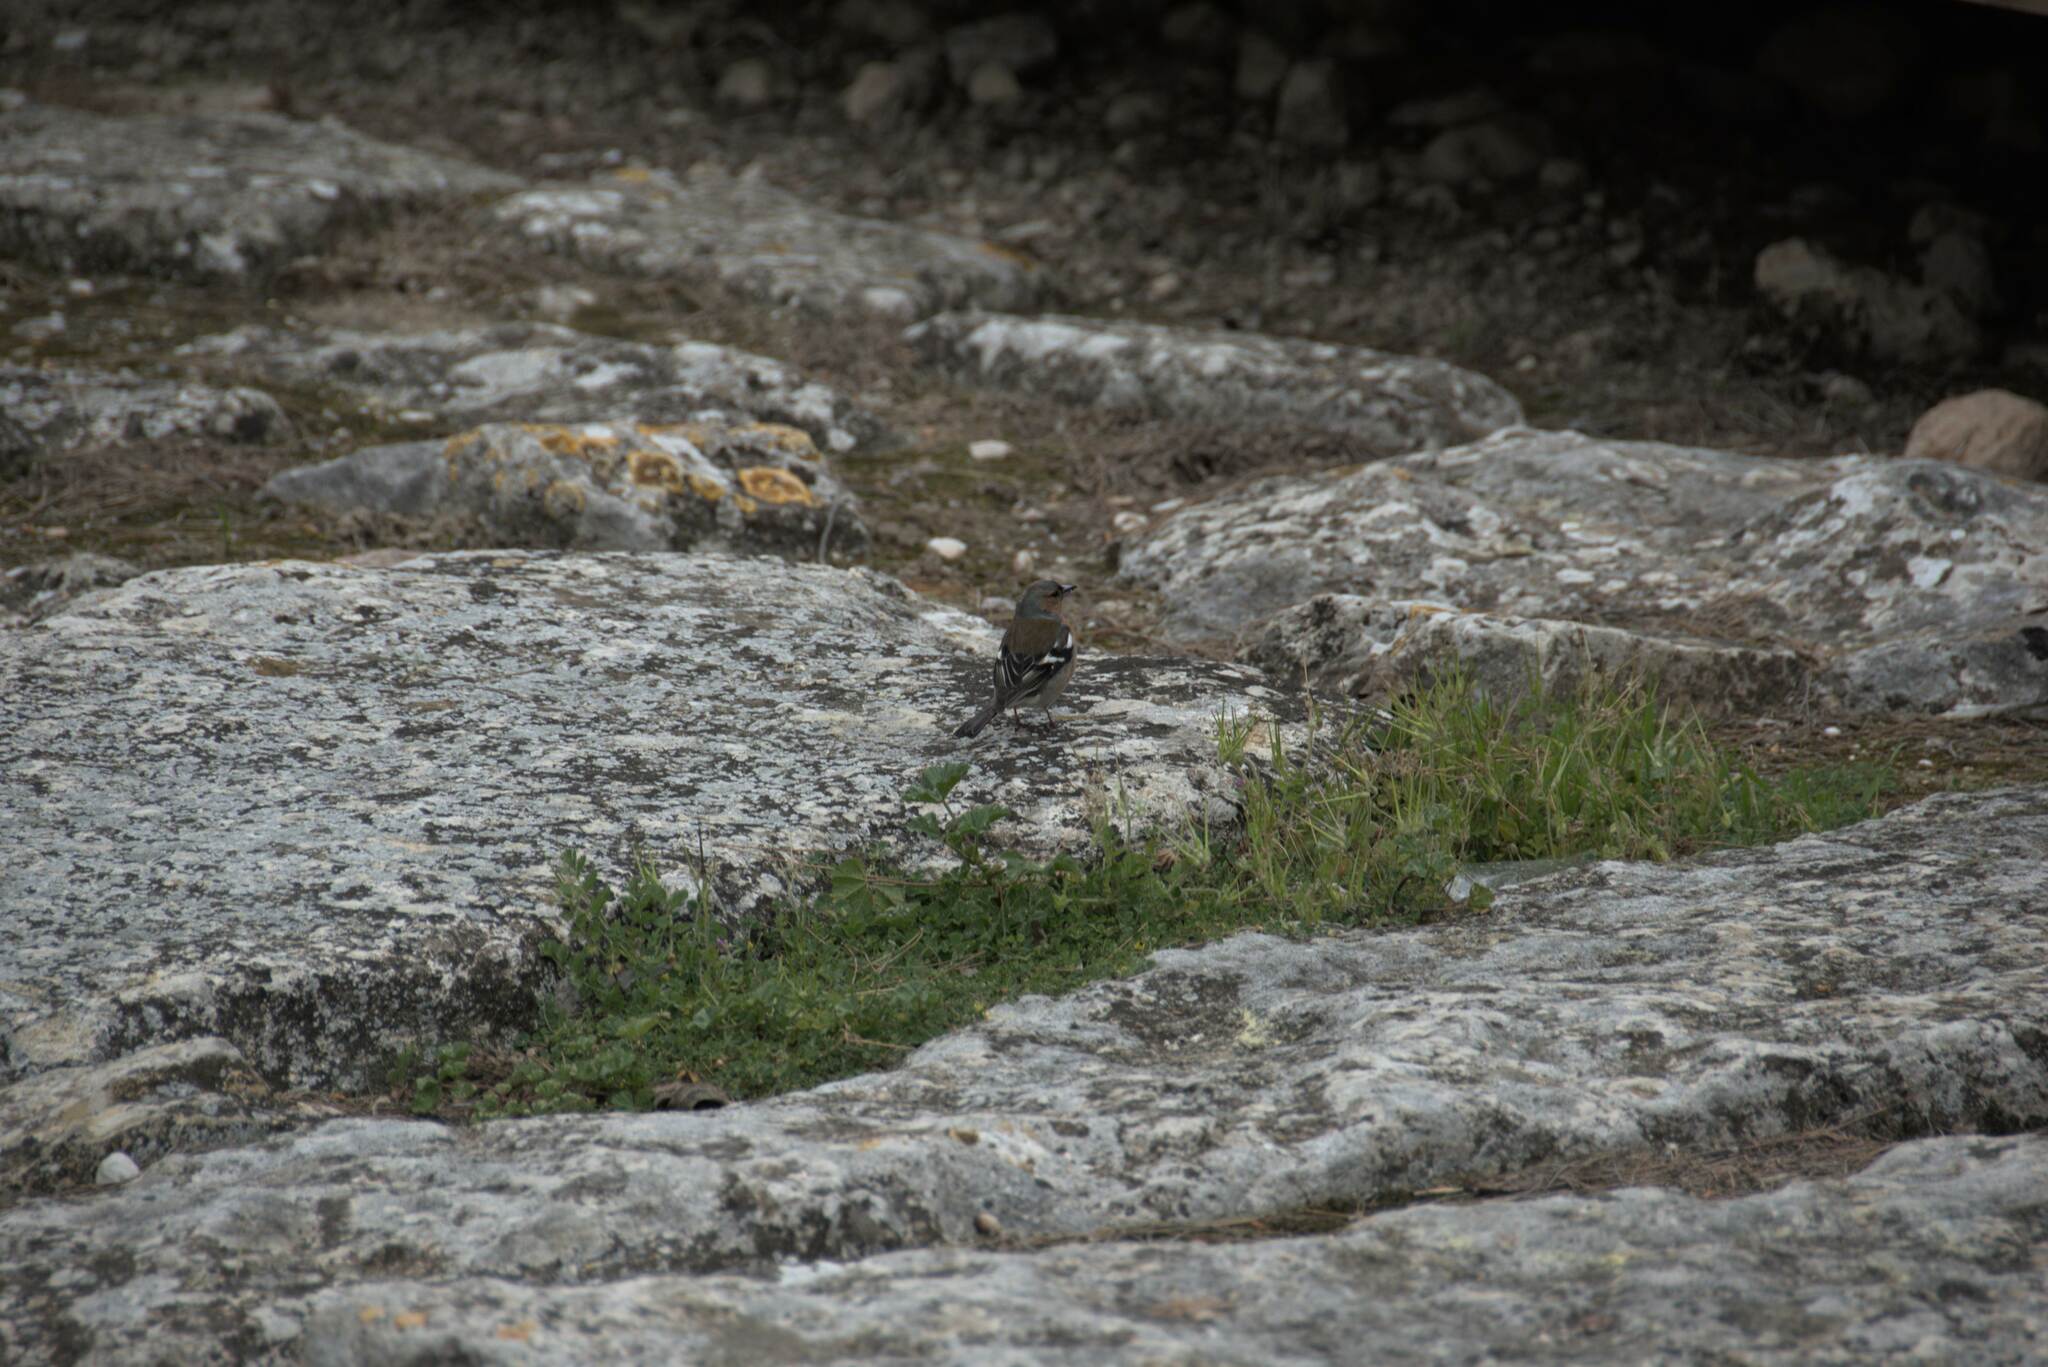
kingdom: Animalia
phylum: Chordata
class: Aves
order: Passeriformes
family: Fringillidae
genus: Fringilla
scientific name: Fringilla coelebs
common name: Common chaffinch
